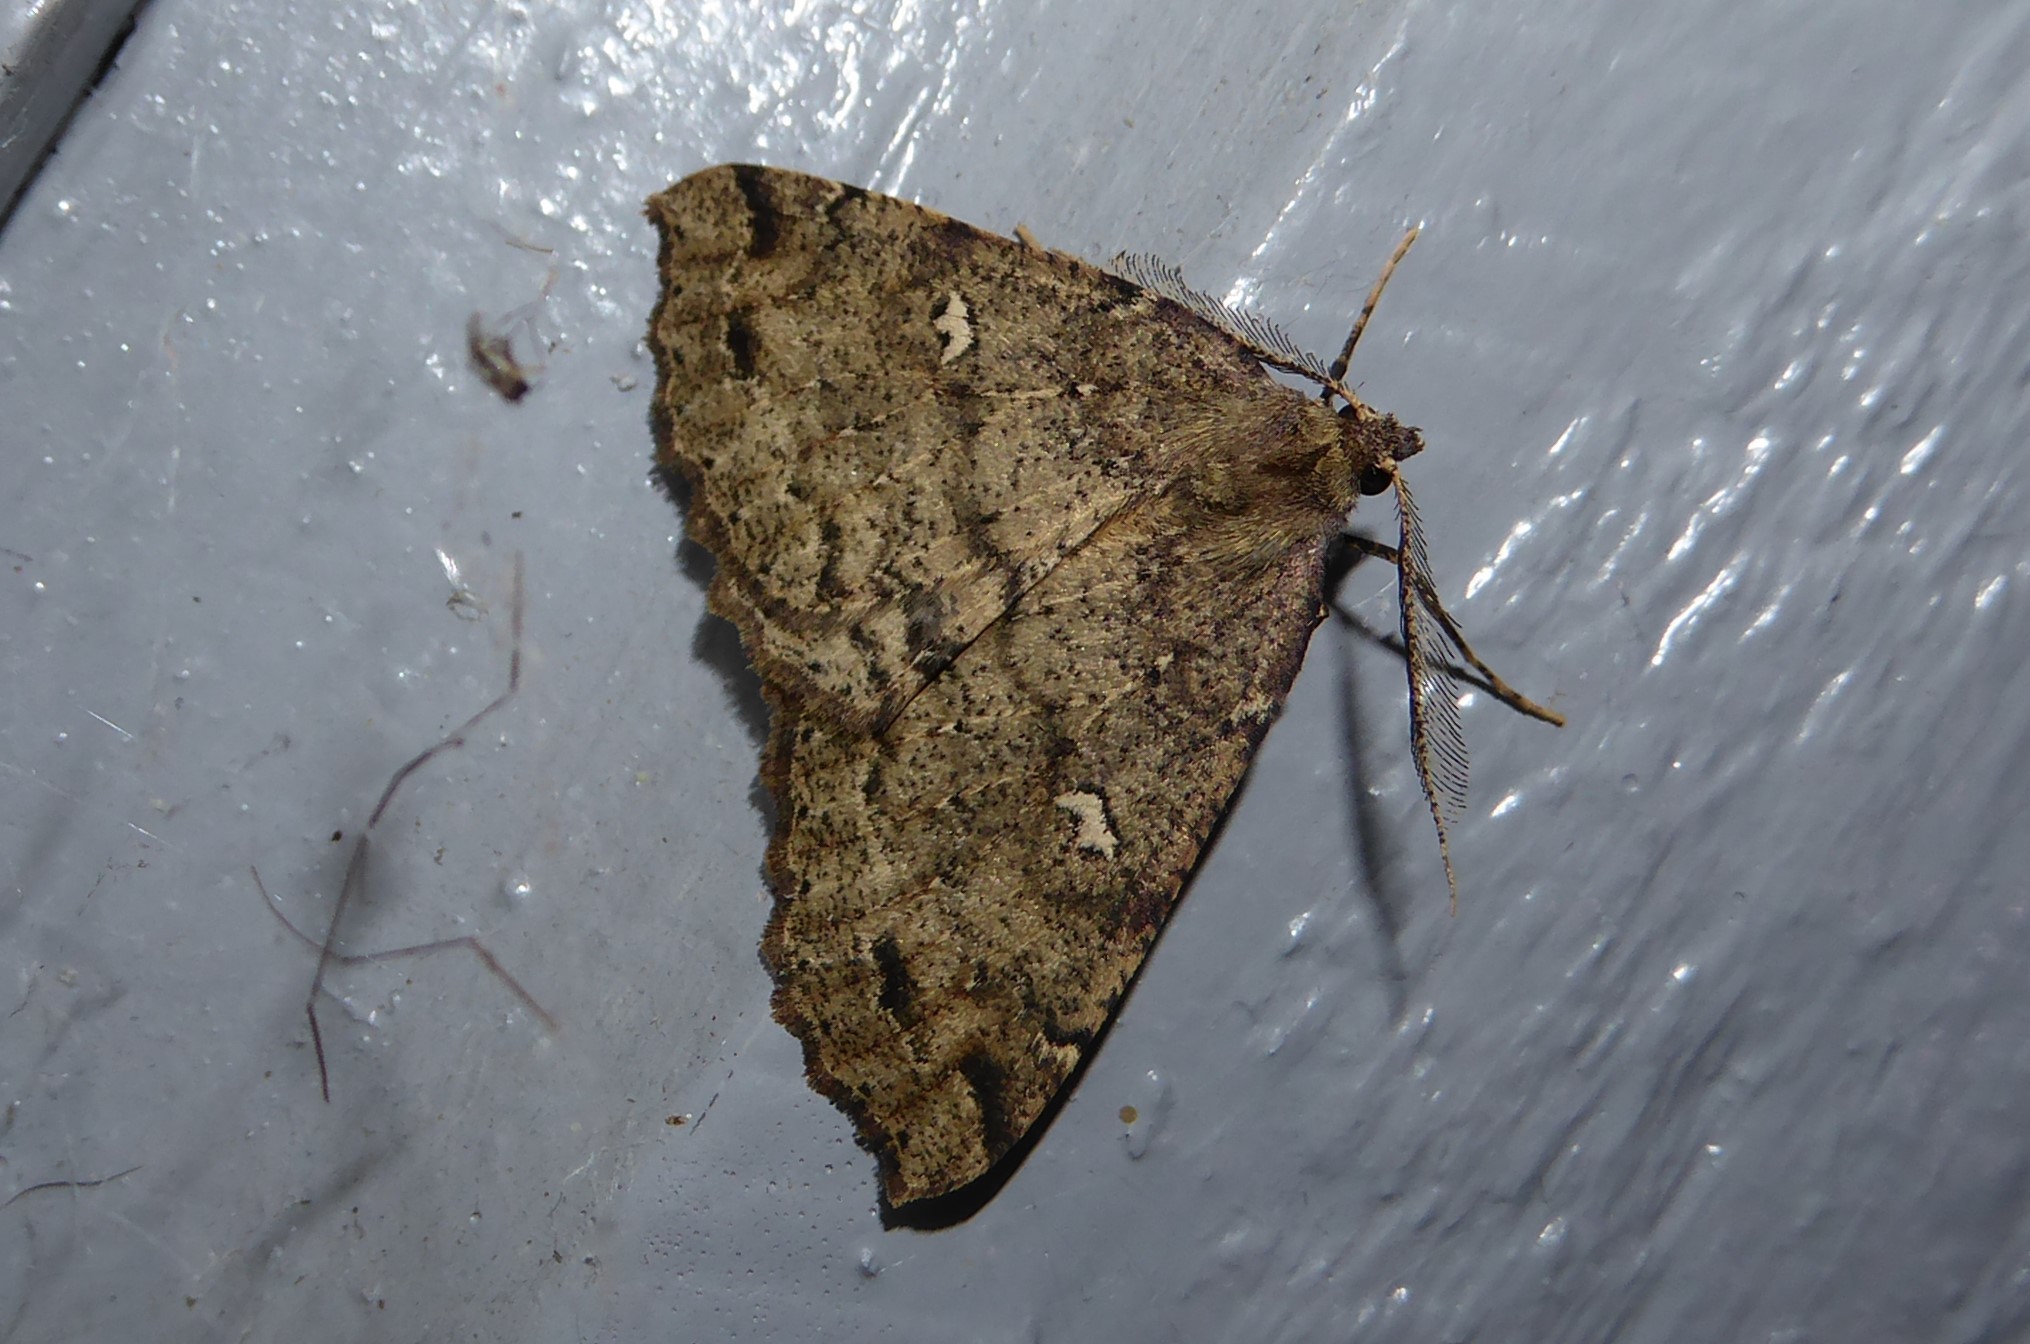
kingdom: Animalia
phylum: Arthropoda
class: Insecta
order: Lepidoptera
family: Geometridae
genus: Cleora
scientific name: Cleora scriptaria
